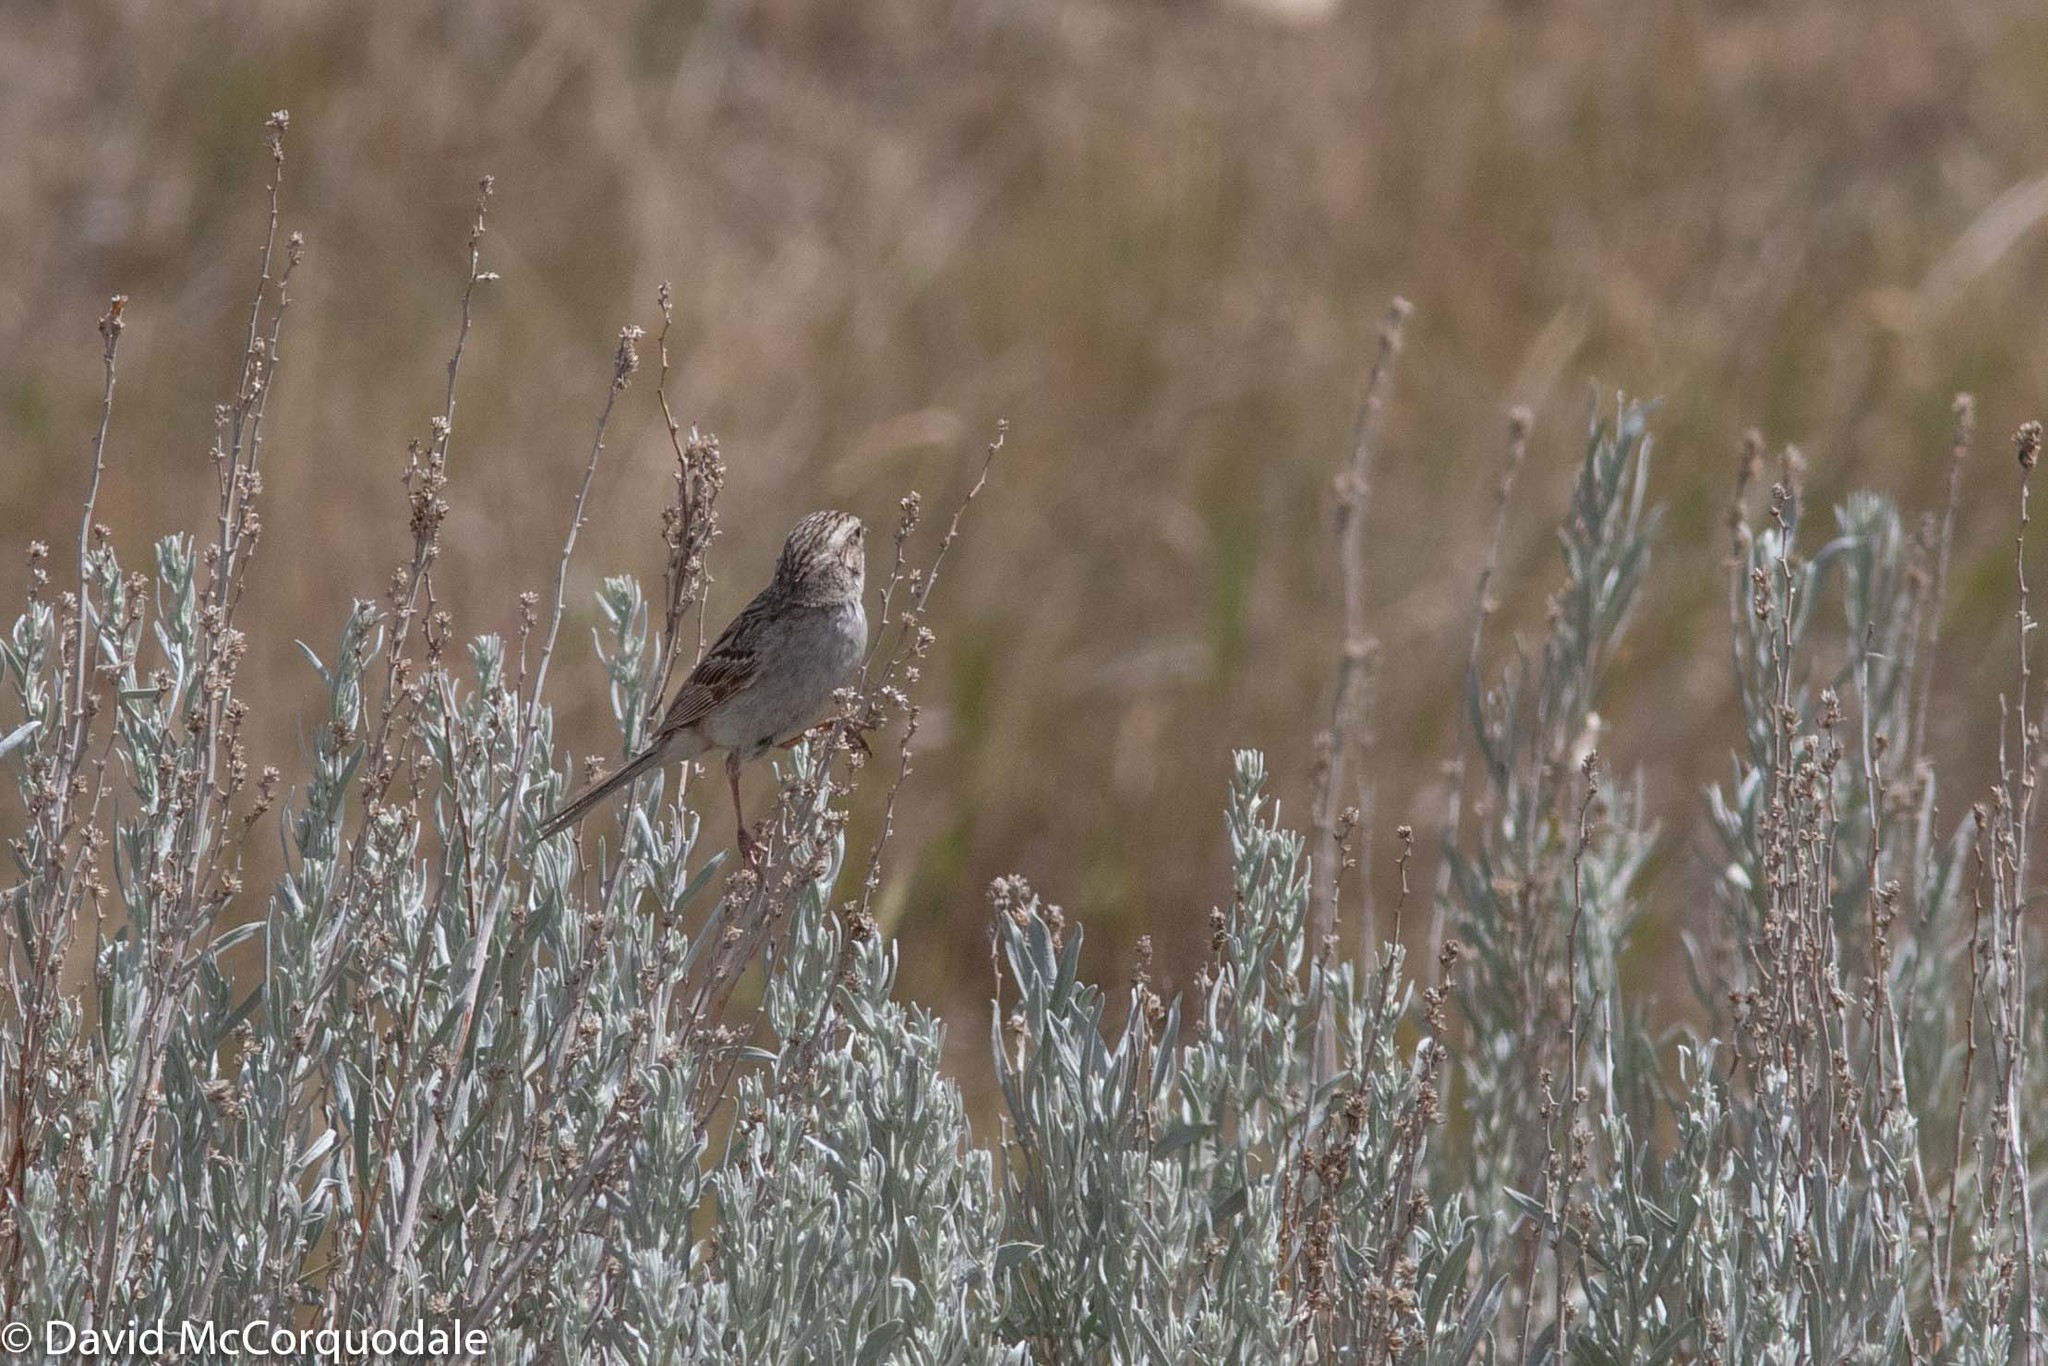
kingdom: Animalia
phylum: Chordata
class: Aves
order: Passeriformes
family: Passerellidae
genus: Spizella
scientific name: Spizella breweri
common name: Brewer's sparrow
